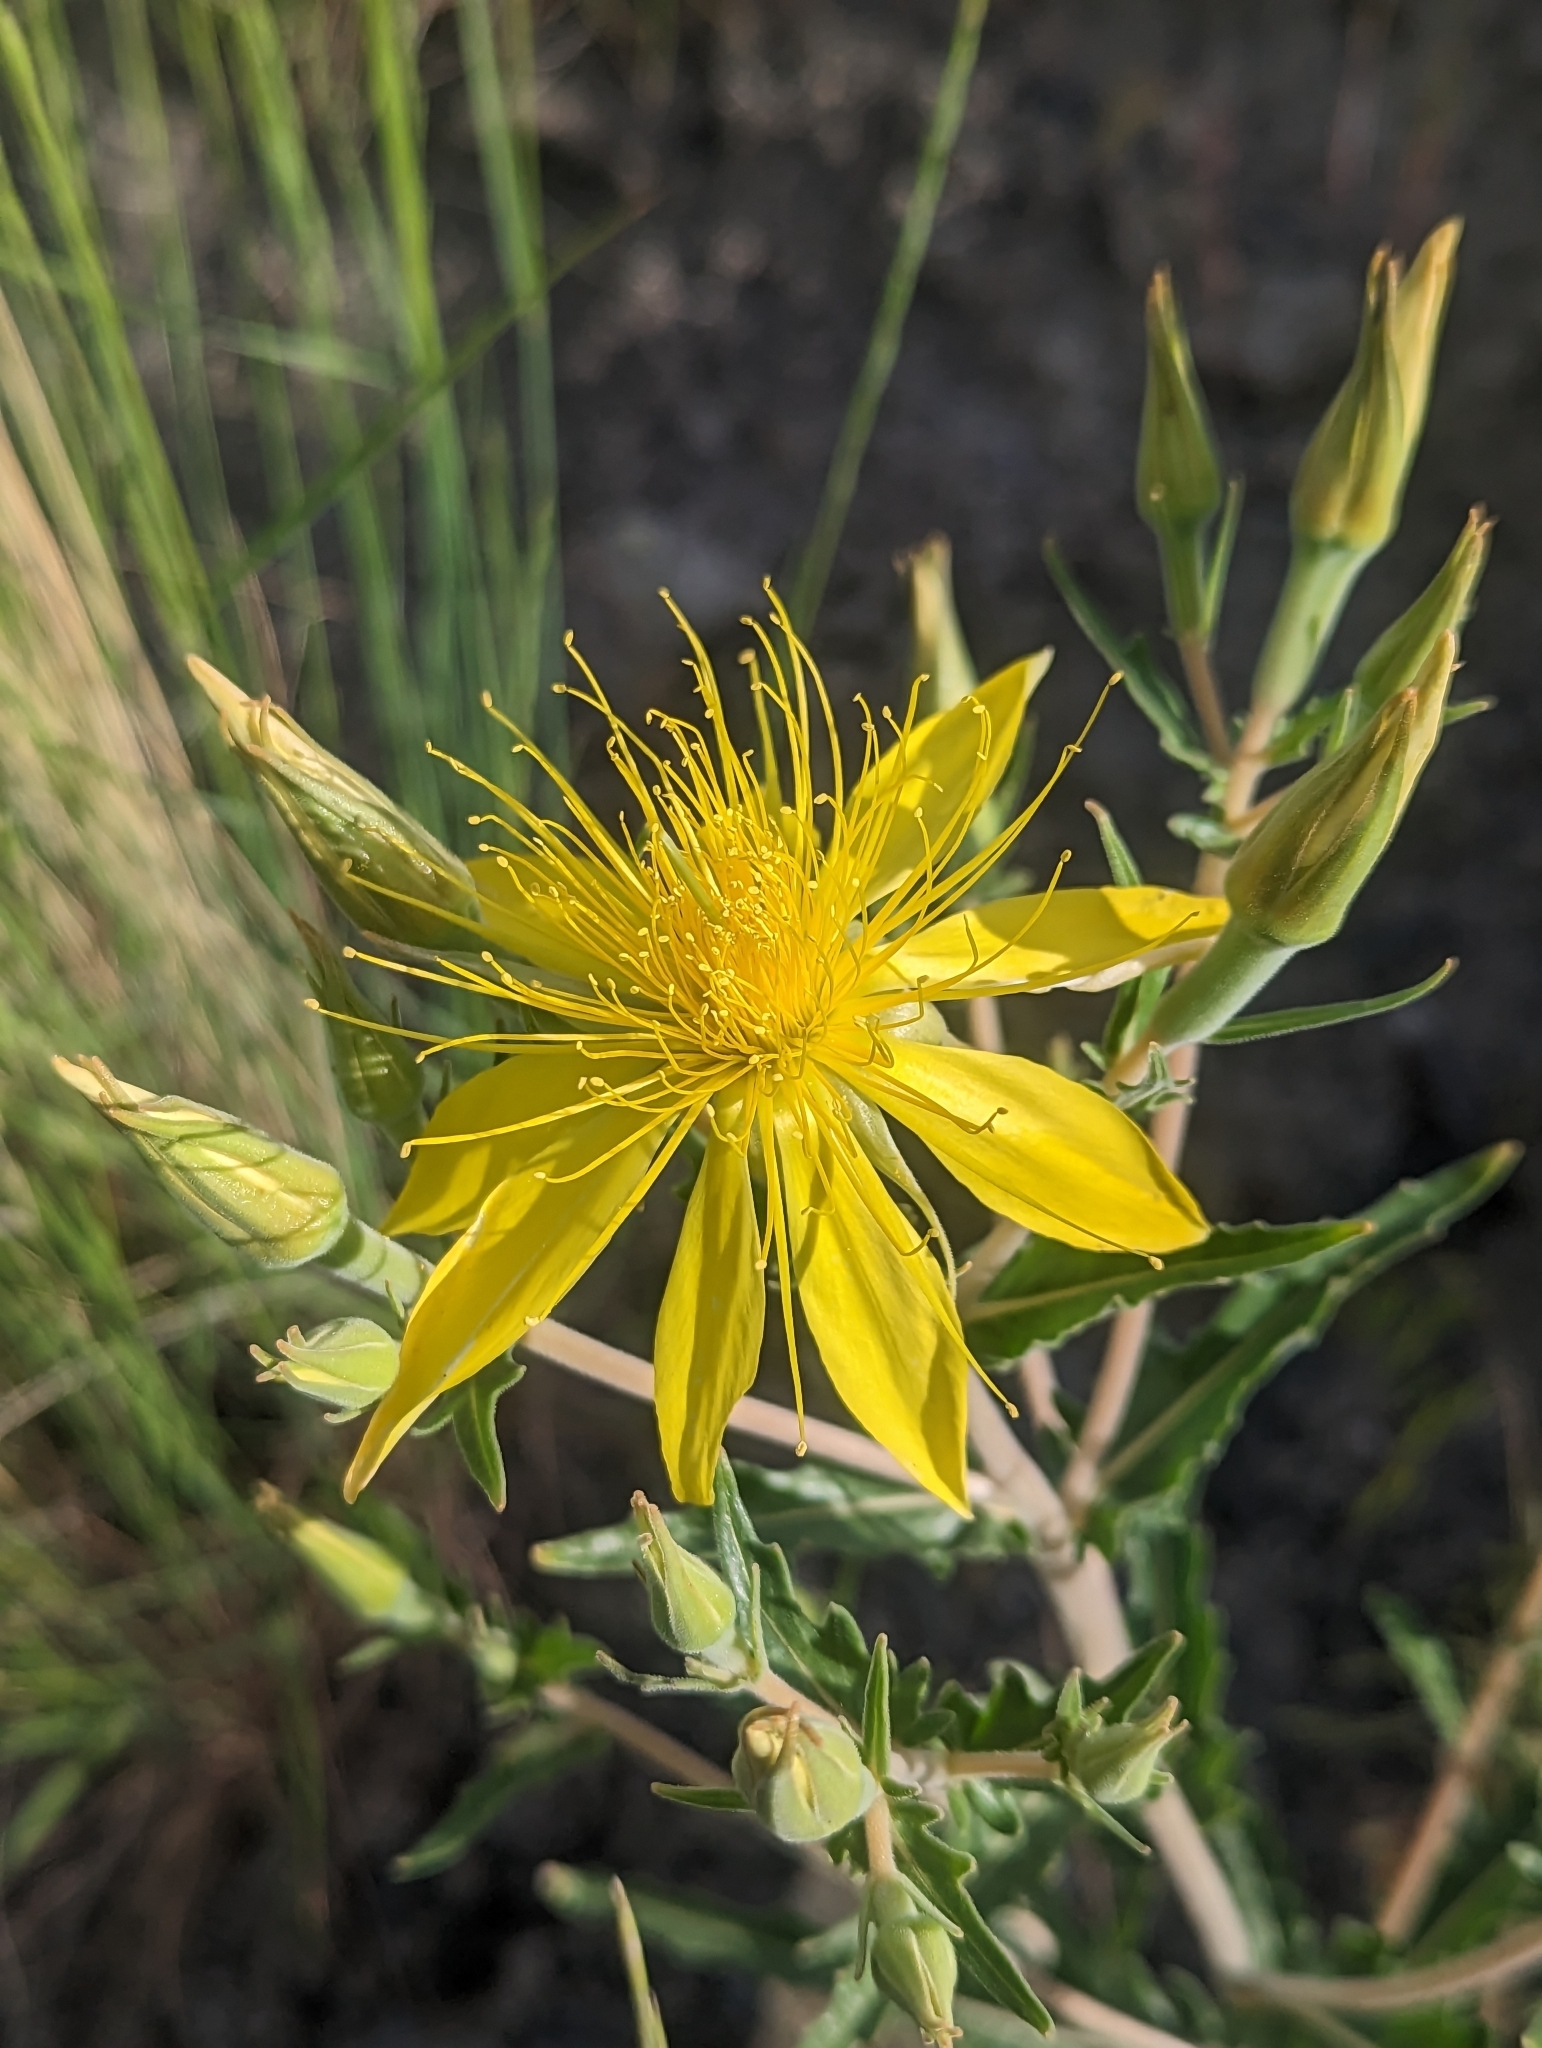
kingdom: Plantae
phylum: Tracheophyta
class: Magnoliopsida
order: Cornales
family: Loasaceae
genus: Mentzelia
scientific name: Mentzelia laevicaulis
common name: Smooth-stem blazingstar
